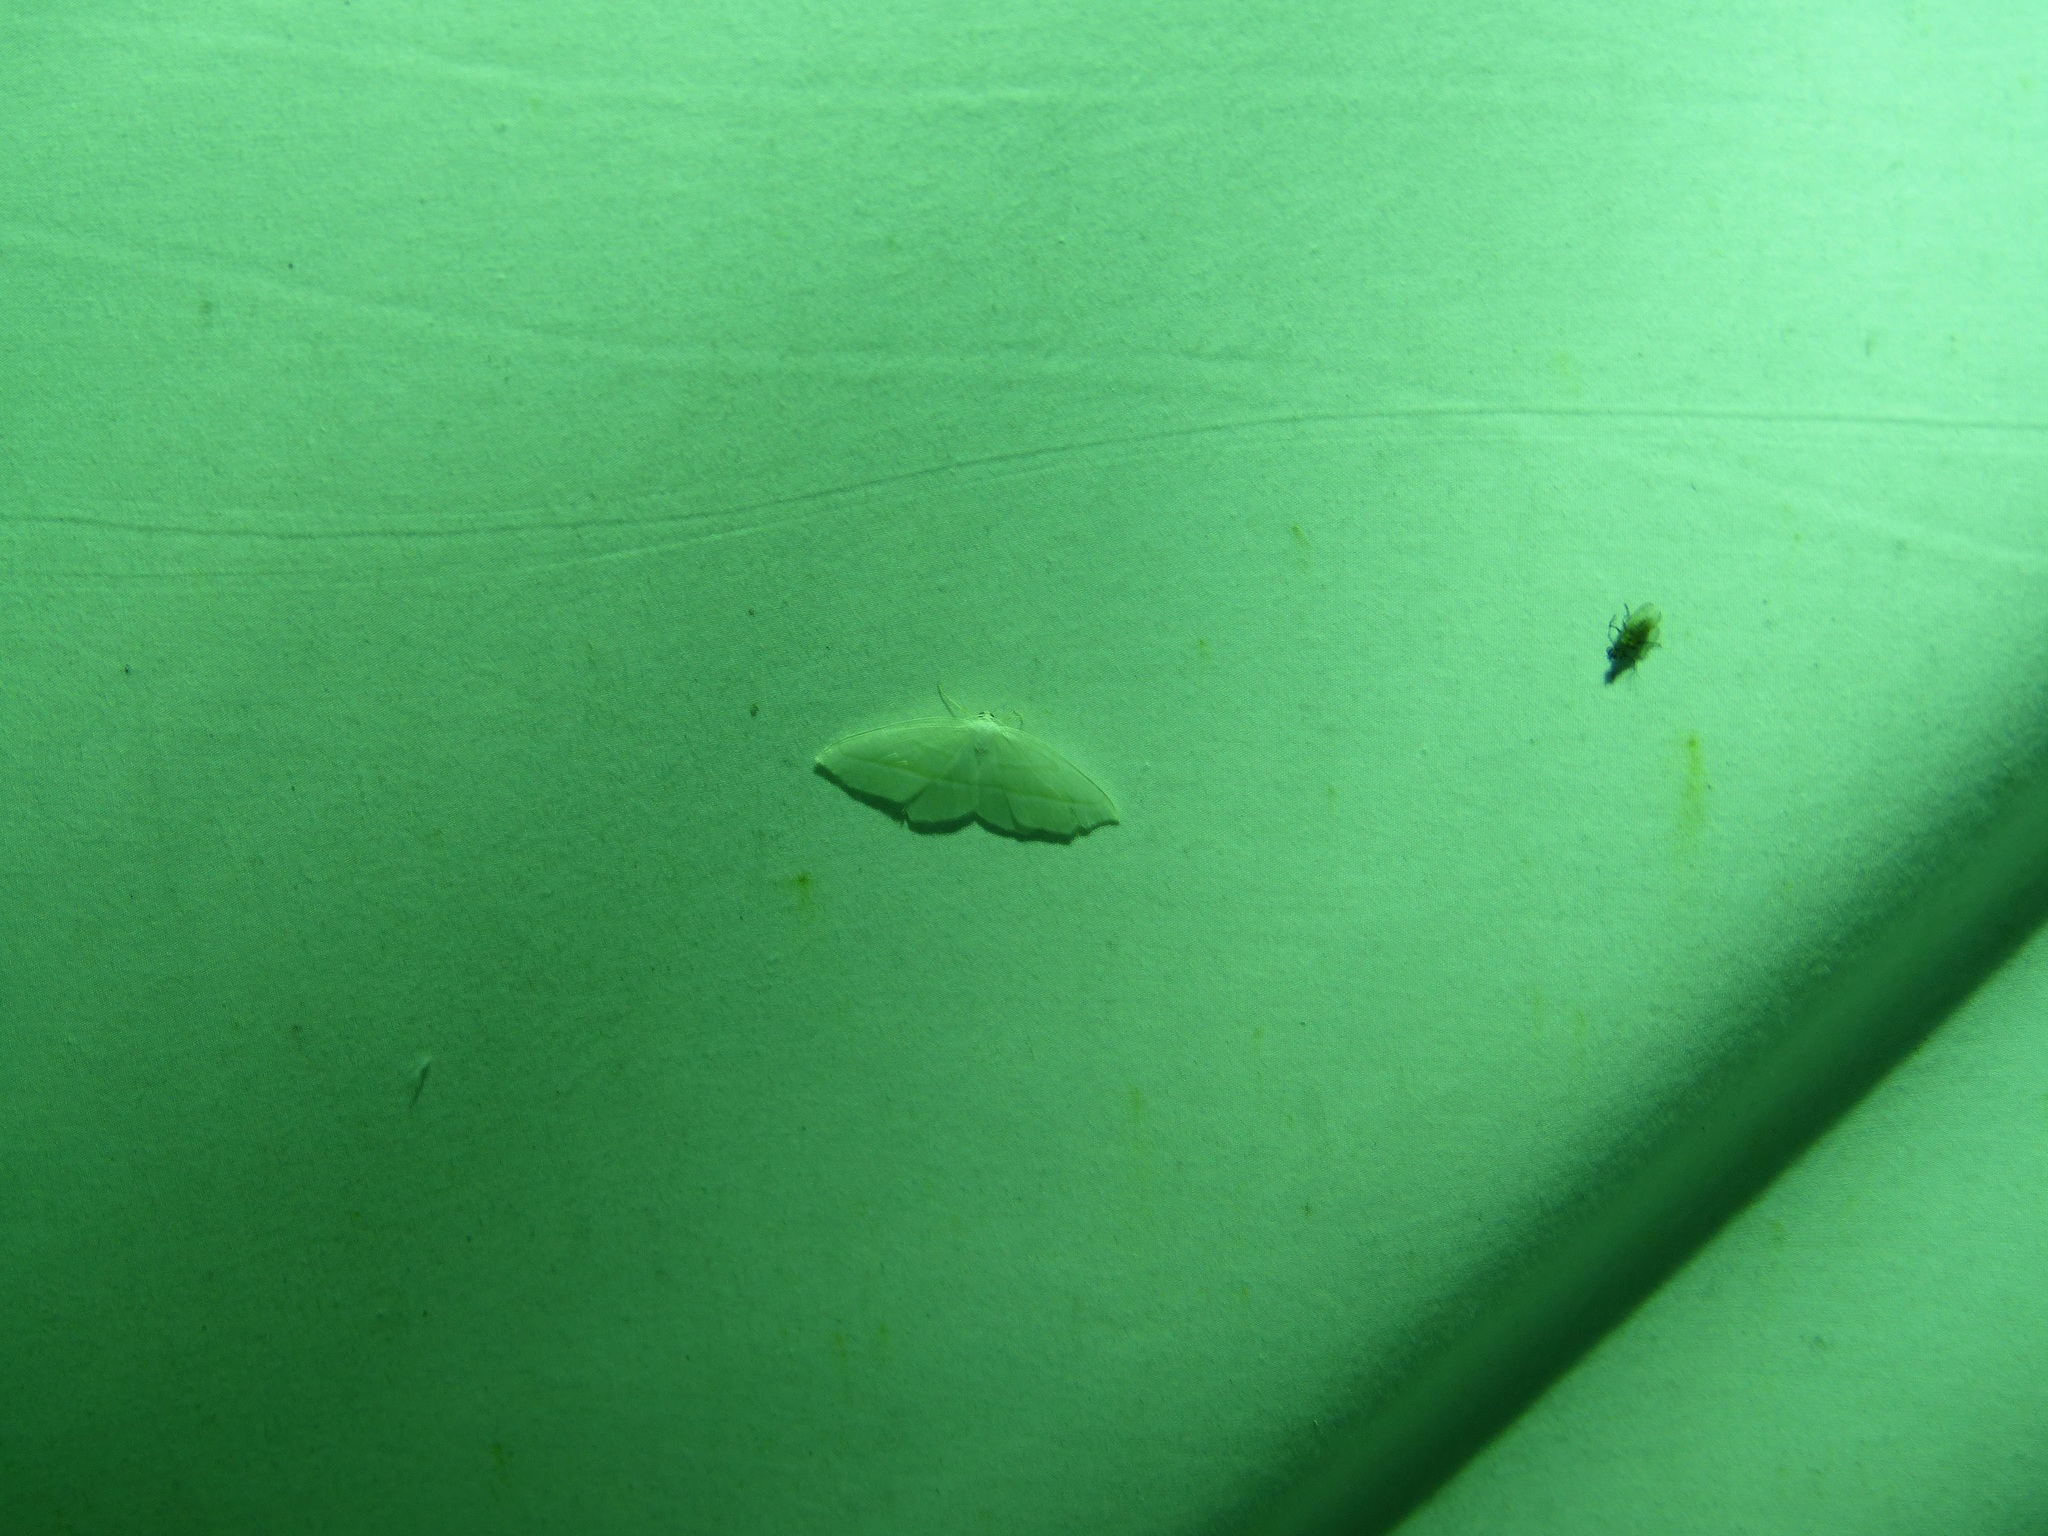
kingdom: Animalia
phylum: Arthropoda
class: Insecta
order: Lepidoptera
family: Geometridae
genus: Campaea
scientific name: Campaea perlata
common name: Fringed looper
